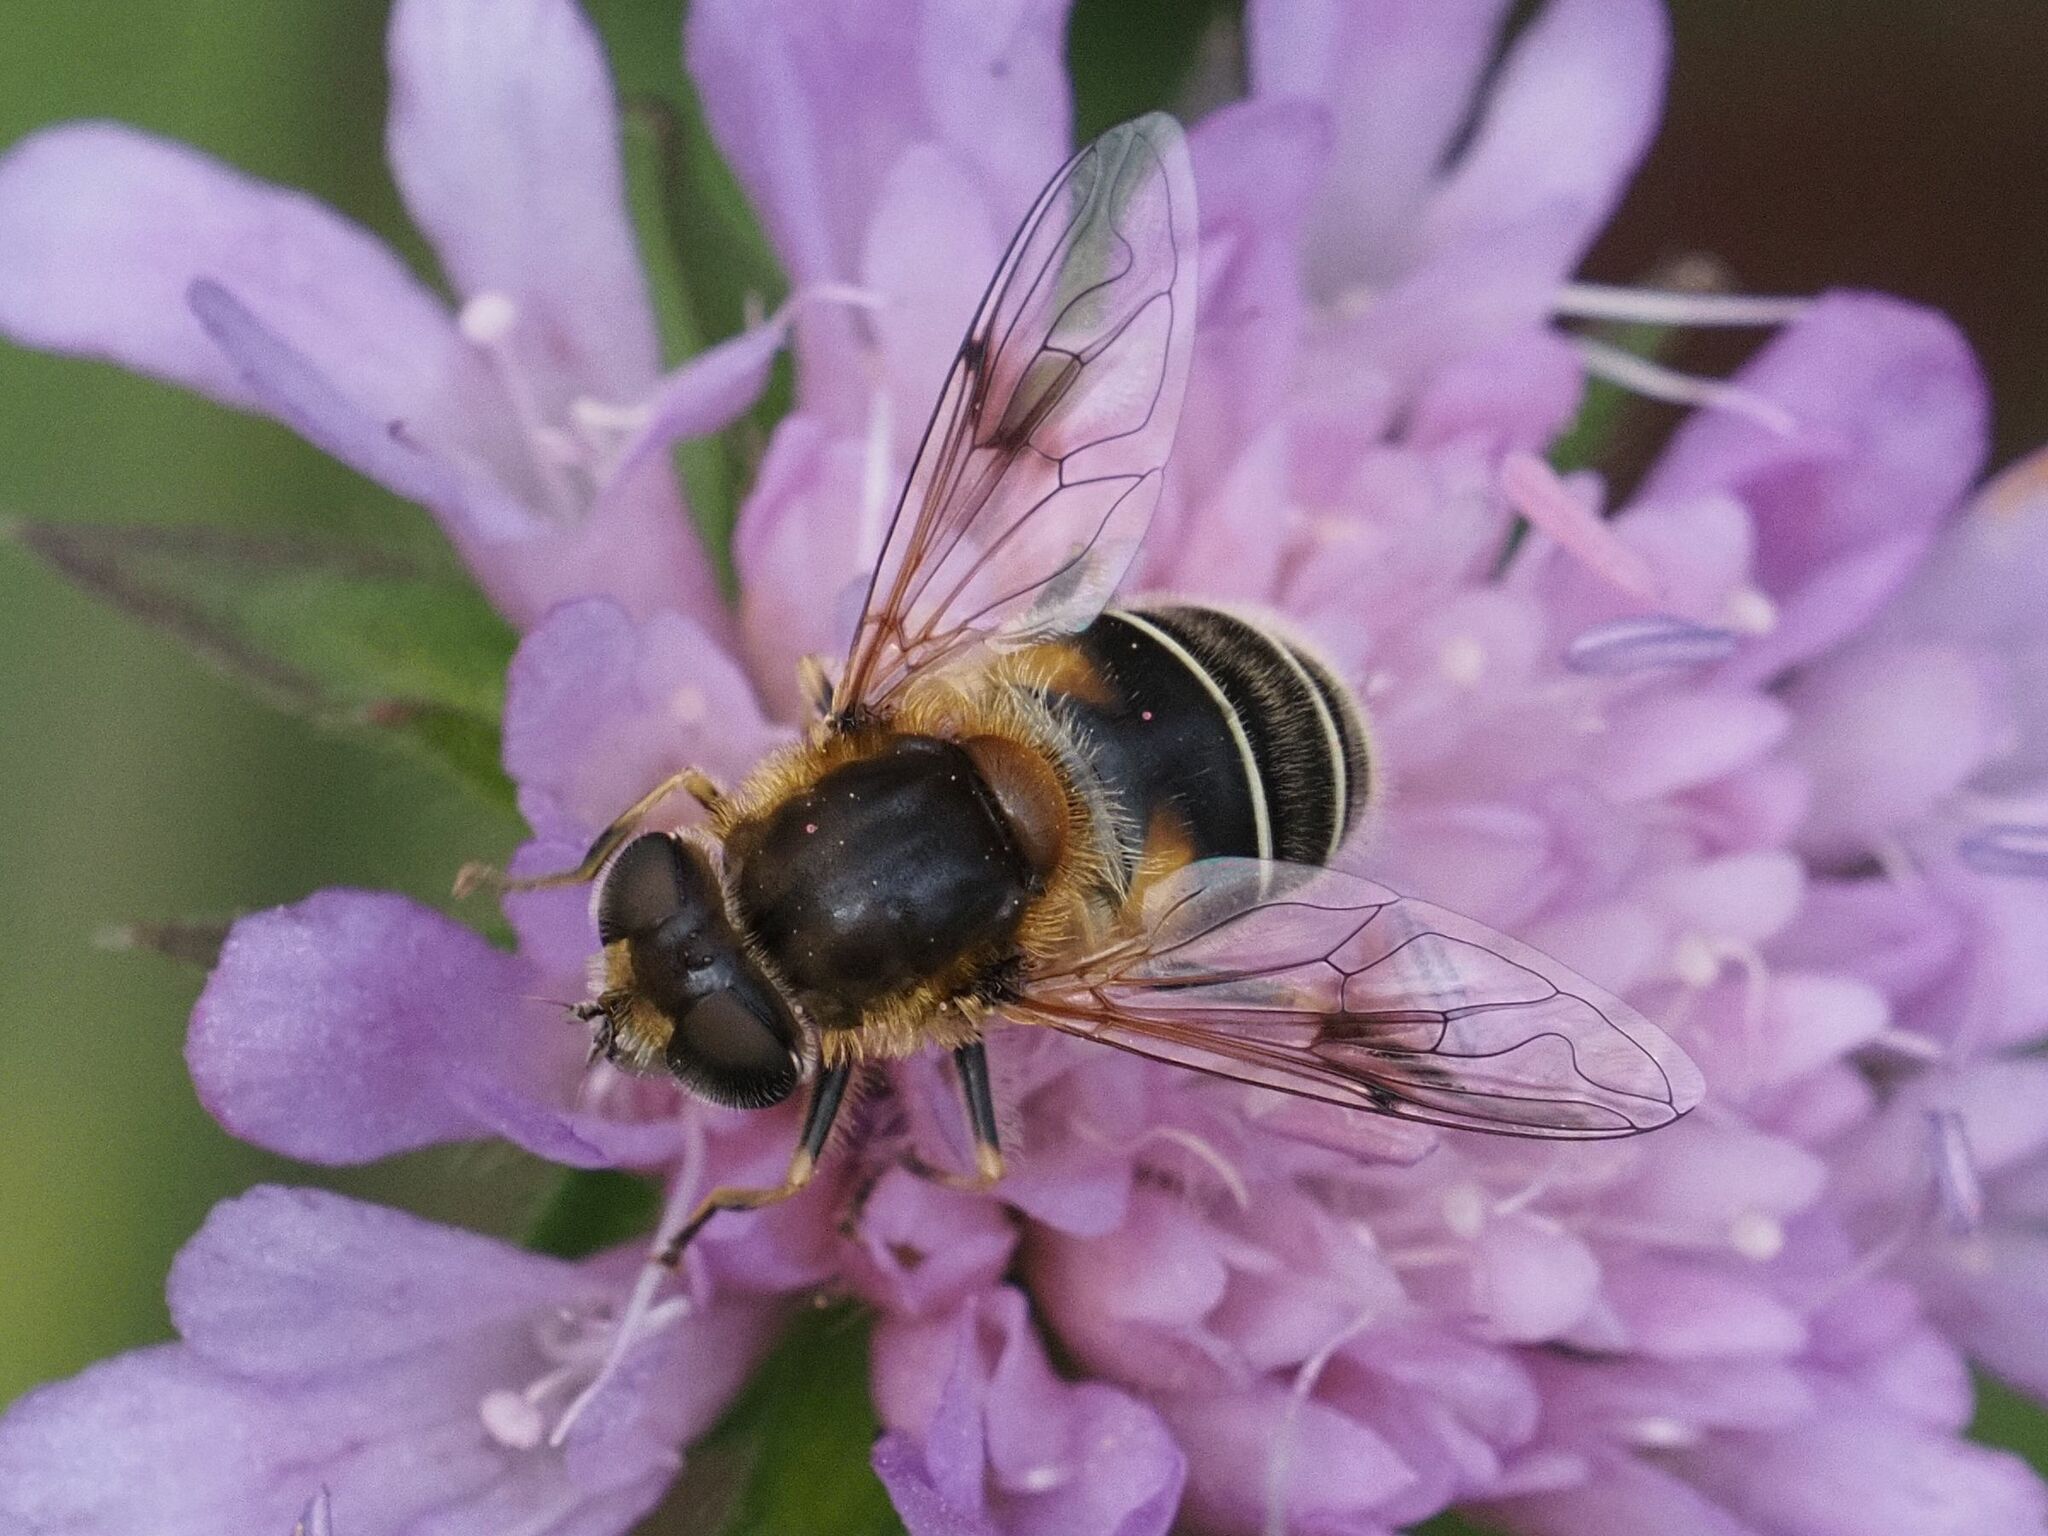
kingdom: Animalia
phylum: Arthropoda
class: Insecta
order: Diptera
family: Syrphidae
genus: Eristalis
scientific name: Eristalis jugorum
